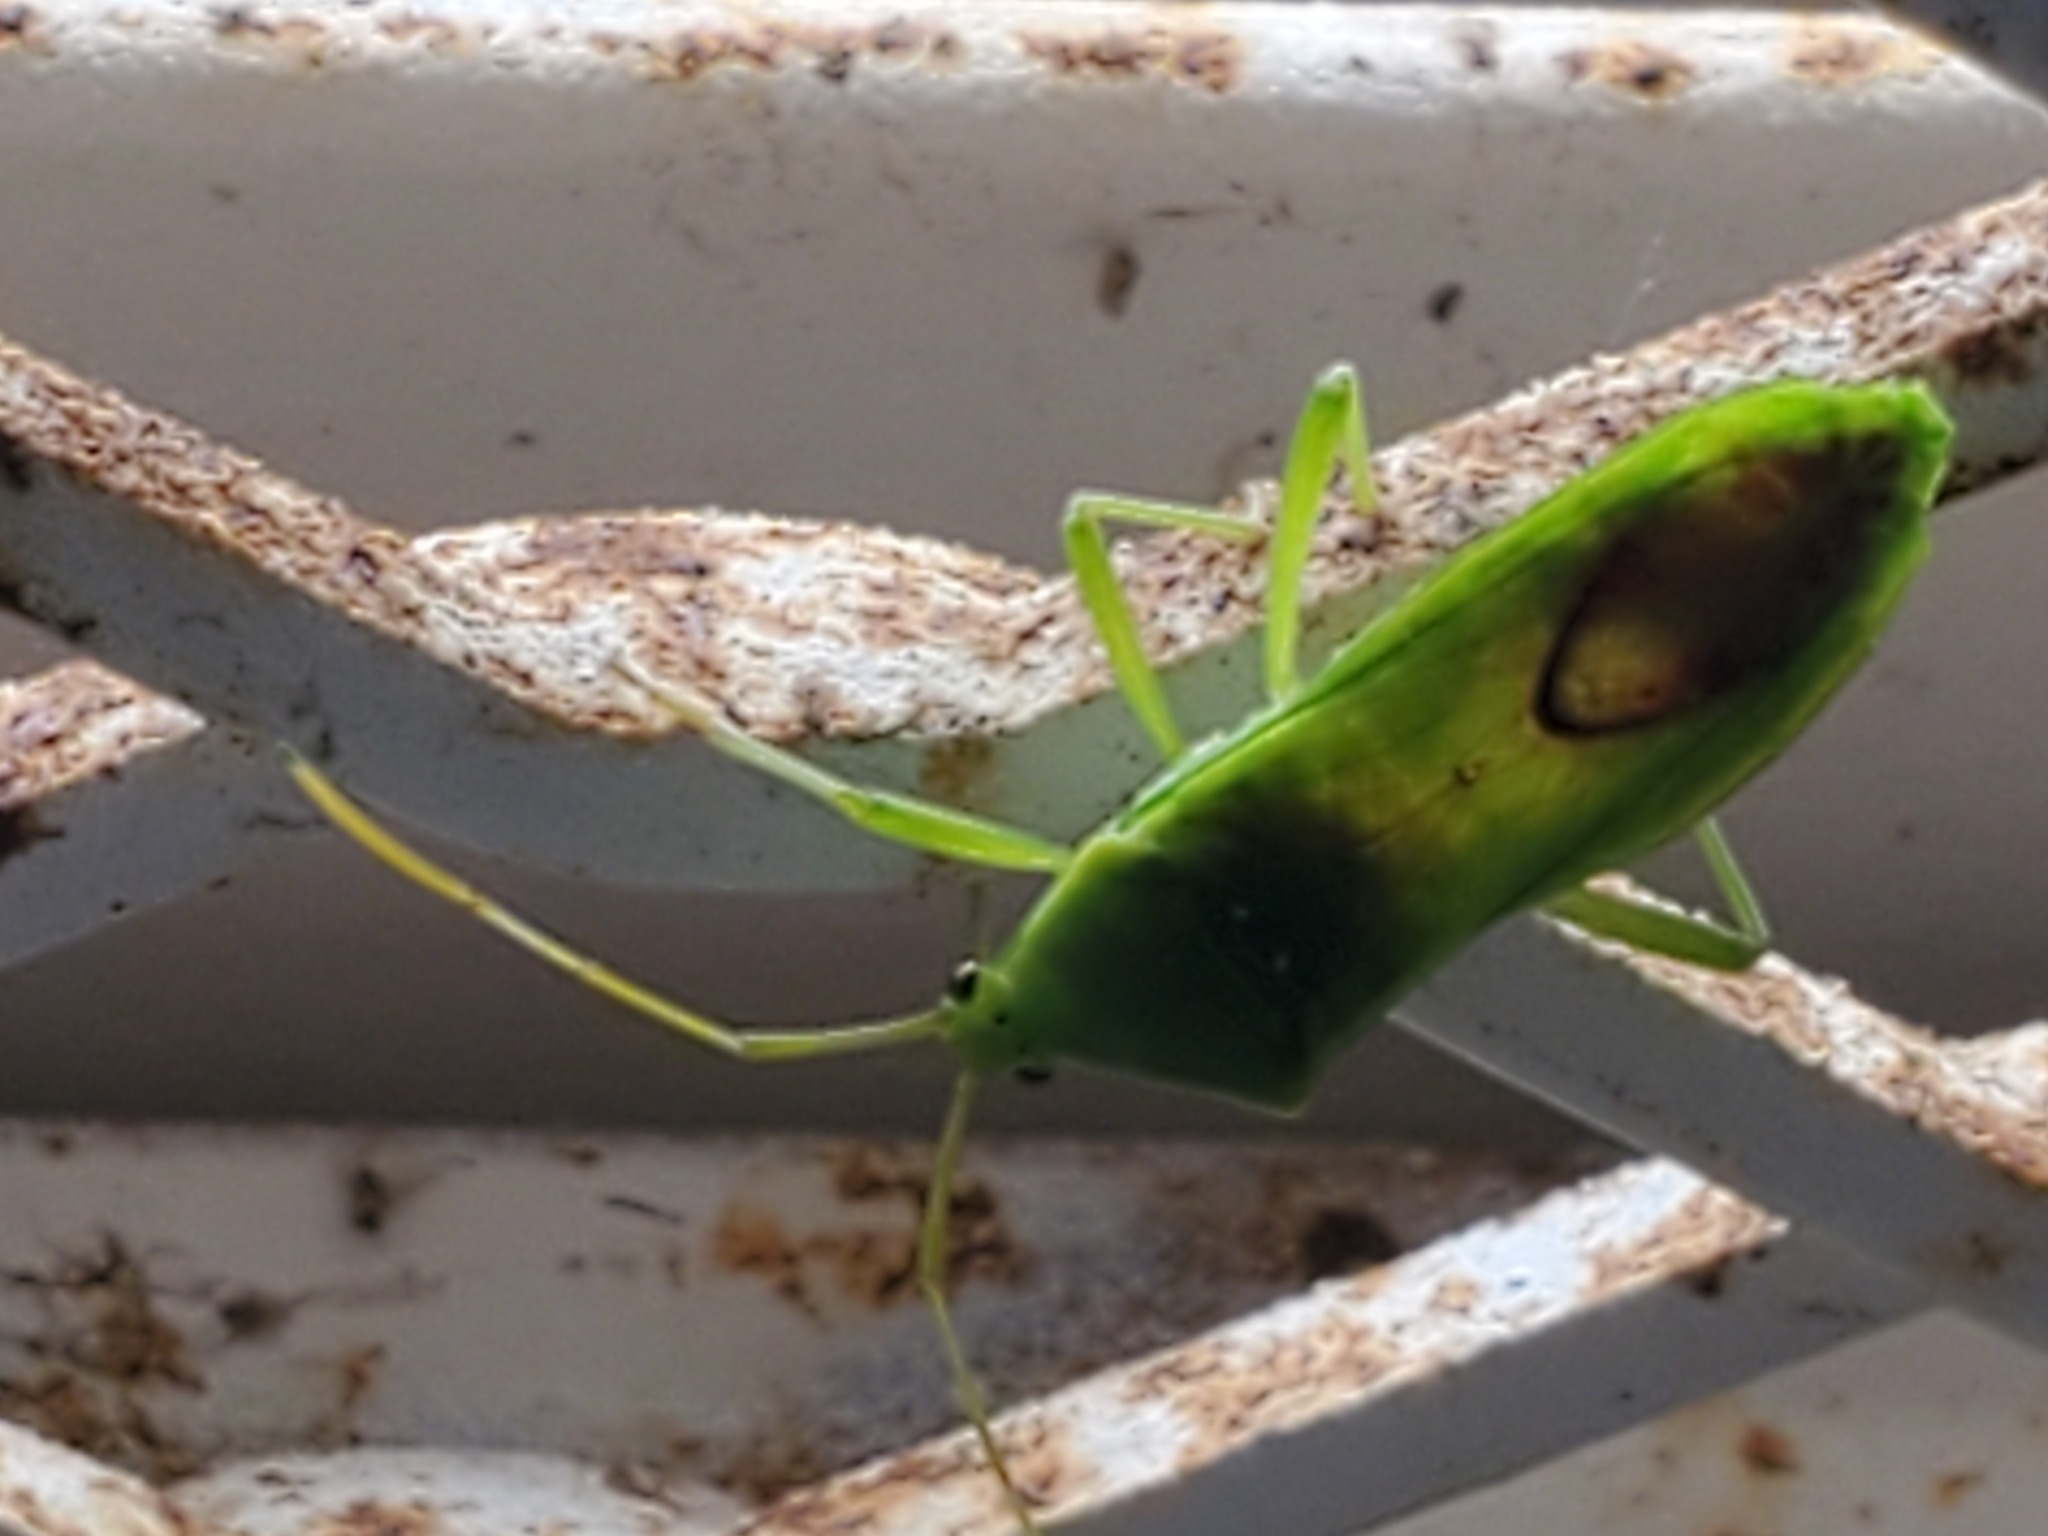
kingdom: Animalia
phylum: Arthropoda
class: Insecta
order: Hemiptera
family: Coreidae
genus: Savius
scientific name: Savius jurgiosus
